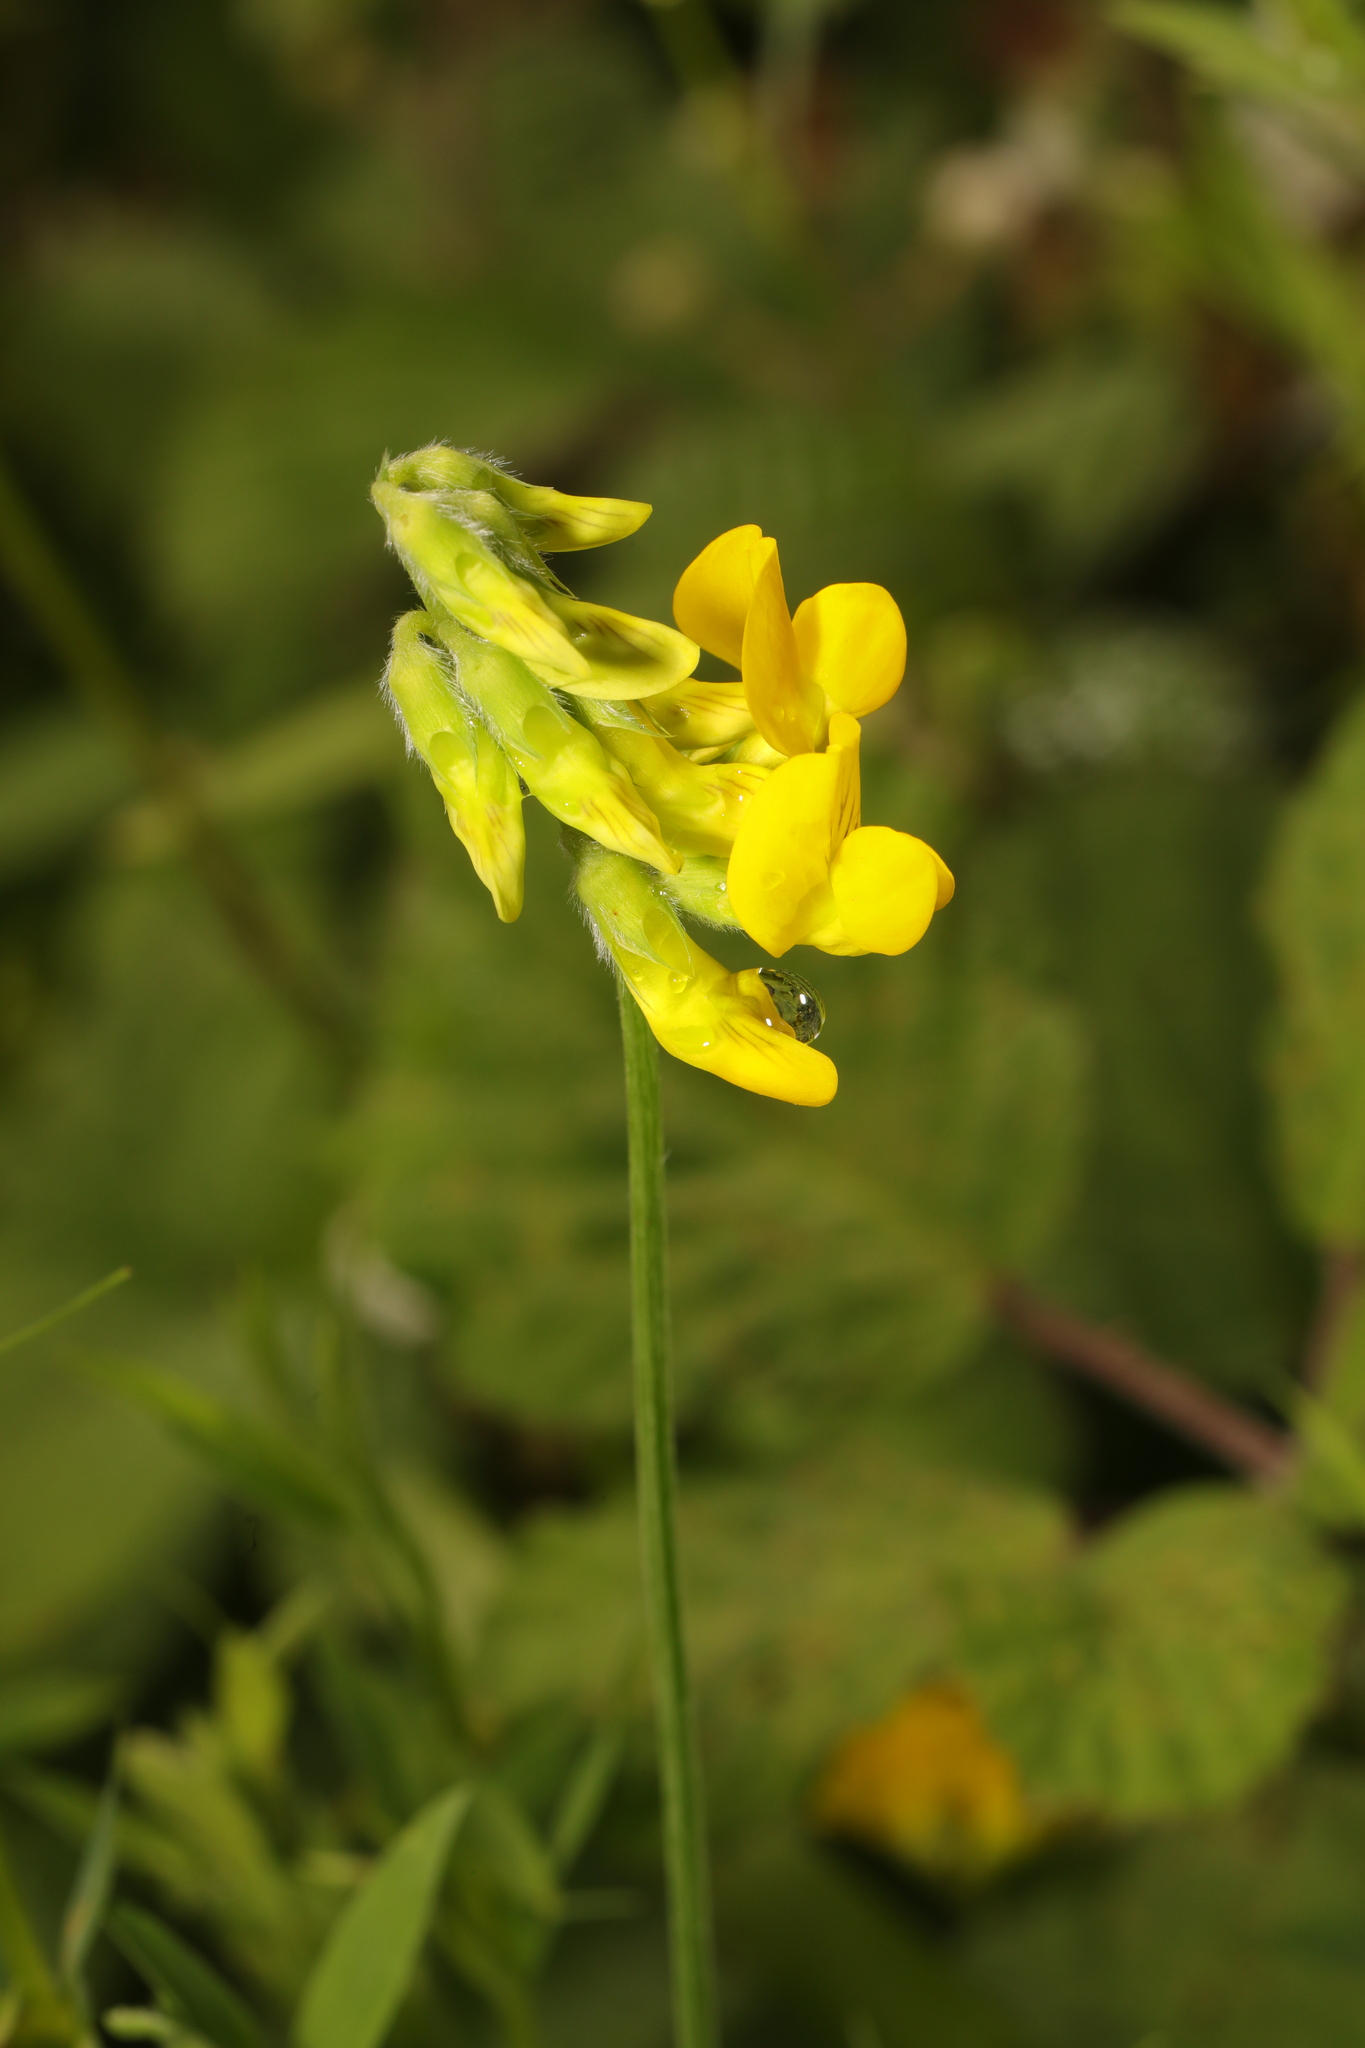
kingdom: Plantae
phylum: Tracheophyta
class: Magnoliopsida
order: Fabales
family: Fabaceae
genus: Lathyrus
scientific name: Lathyrus pratensis
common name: Meadow vetchling
